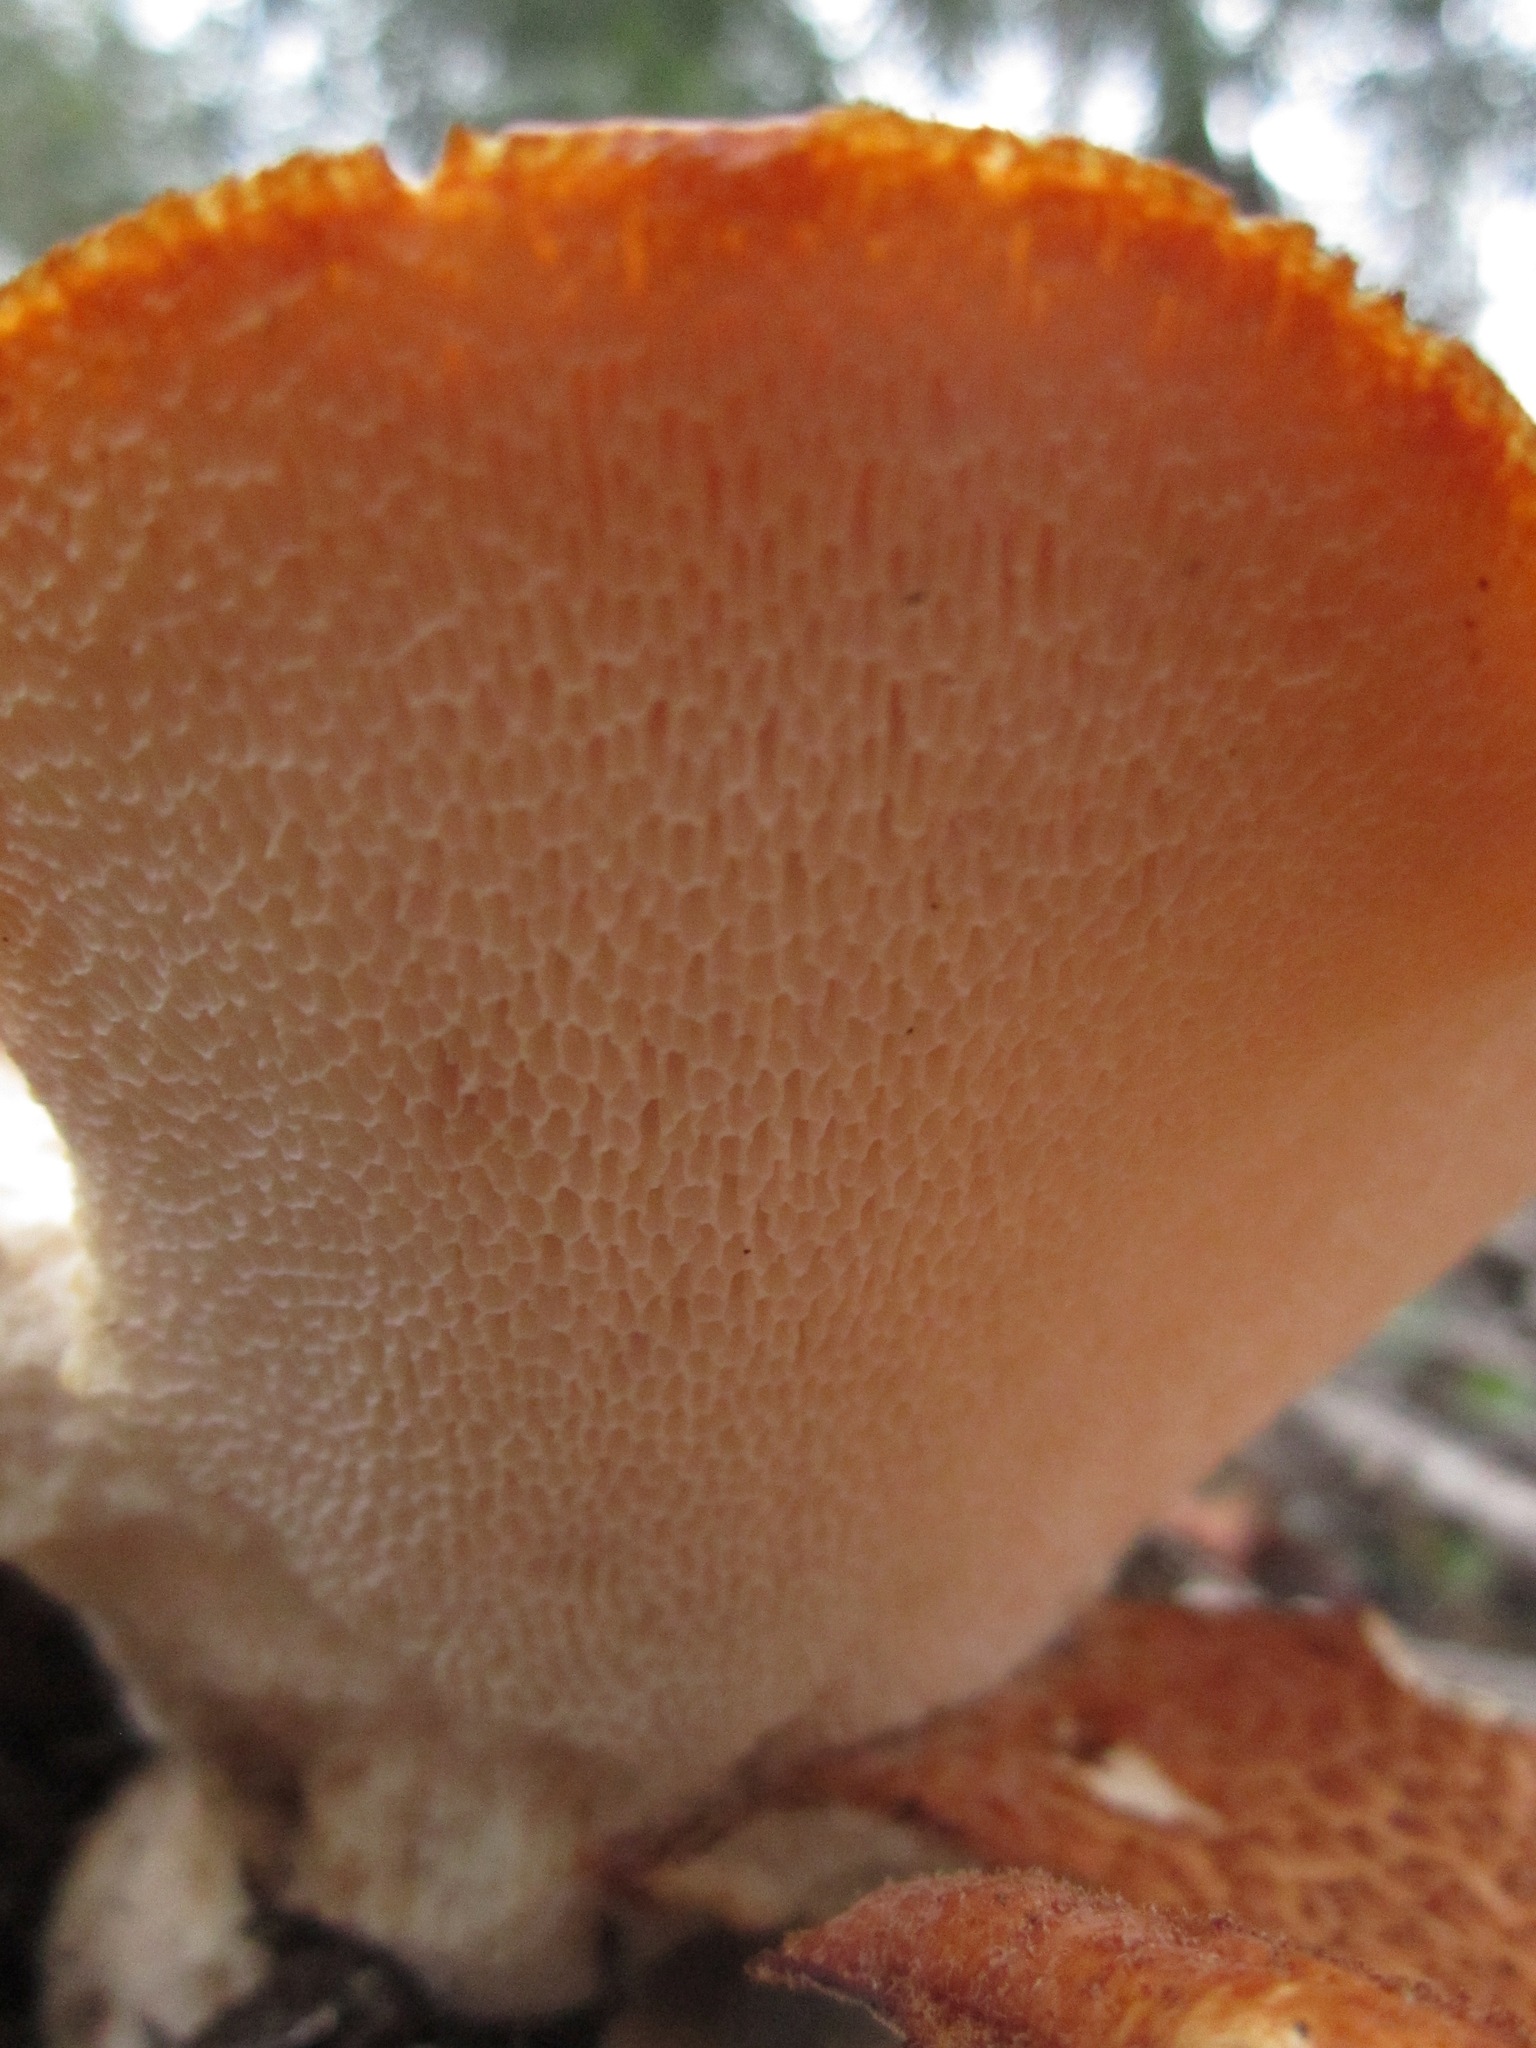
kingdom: Fungi
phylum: Basidiomycota
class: Agaricomycetes
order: Polyporales
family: Polyporaceae
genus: Polyporus
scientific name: Polyporus mcmurphyi
